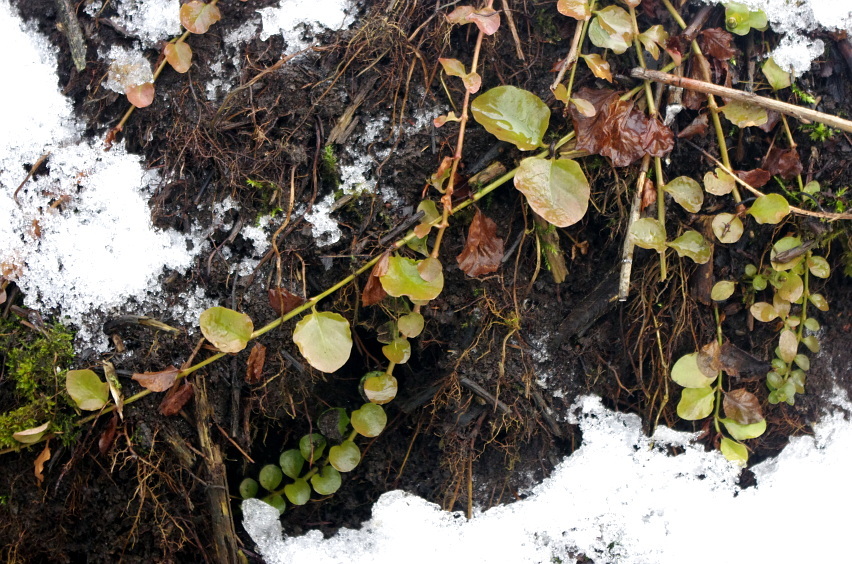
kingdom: Plantae
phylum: Tracheophyta
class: Magnoliopsida
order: Ericales
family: Primulaceae
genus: Lysimachia
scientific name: Lysimachia nummularia
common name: Moneywort
